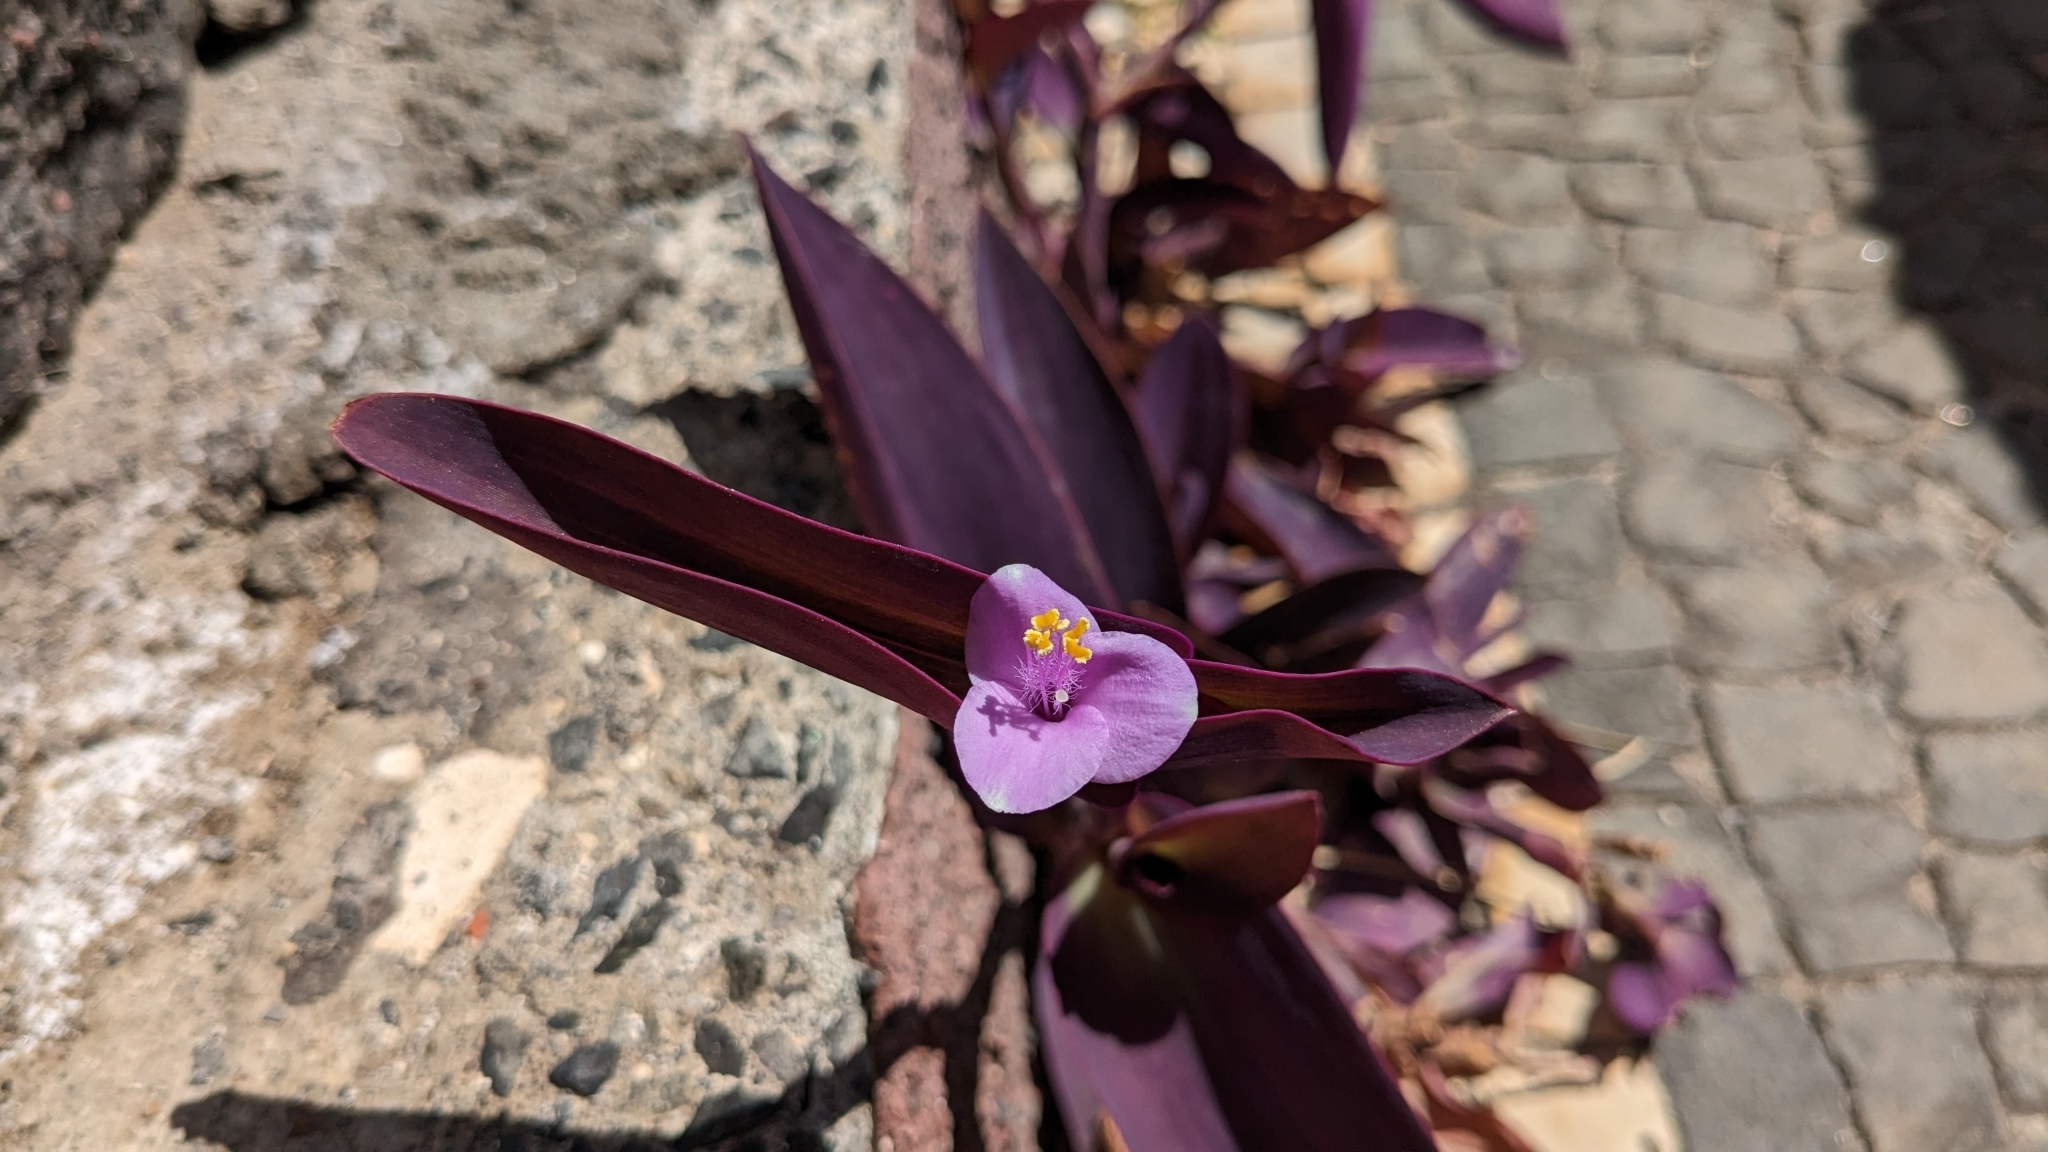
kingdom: Plantae
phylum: Tracheophyta
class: Liliopsida
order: Commelinales
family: Commelinaceae
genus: Tradescantia
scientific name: Tradescantia pallida
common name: Purpleheart
